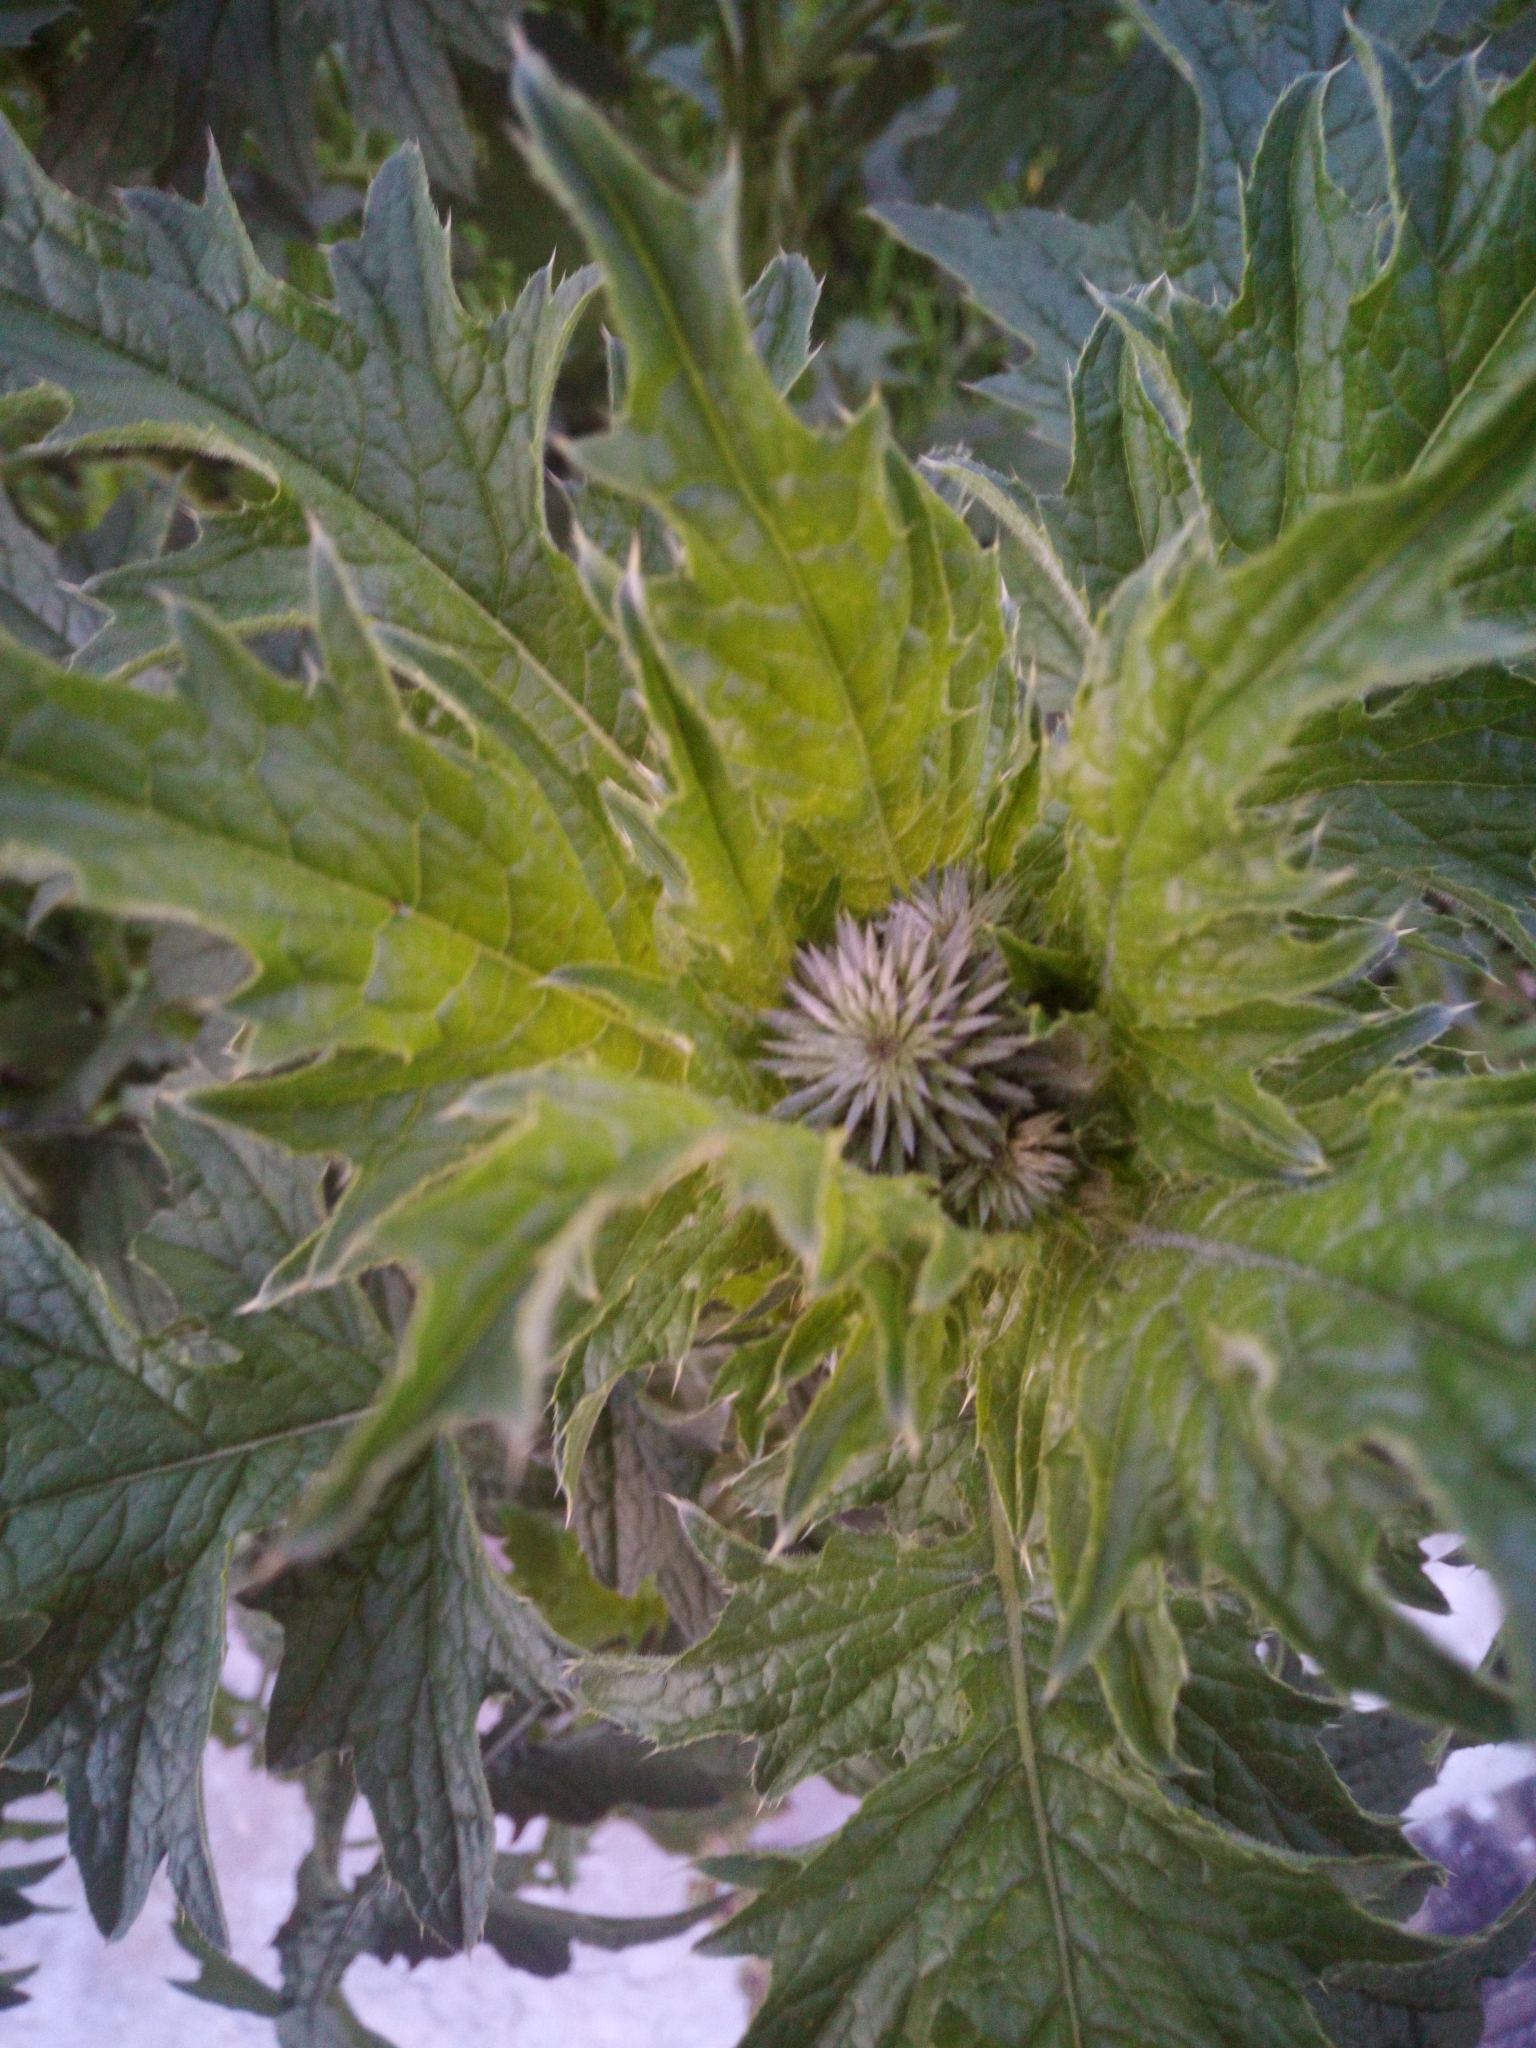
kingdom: Plantae
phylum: Tracheophyta
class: Magnoliopsida
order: Asterales
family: Asteraceae
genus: Carduus
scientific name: Carduus crispus
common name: Welted thistle
